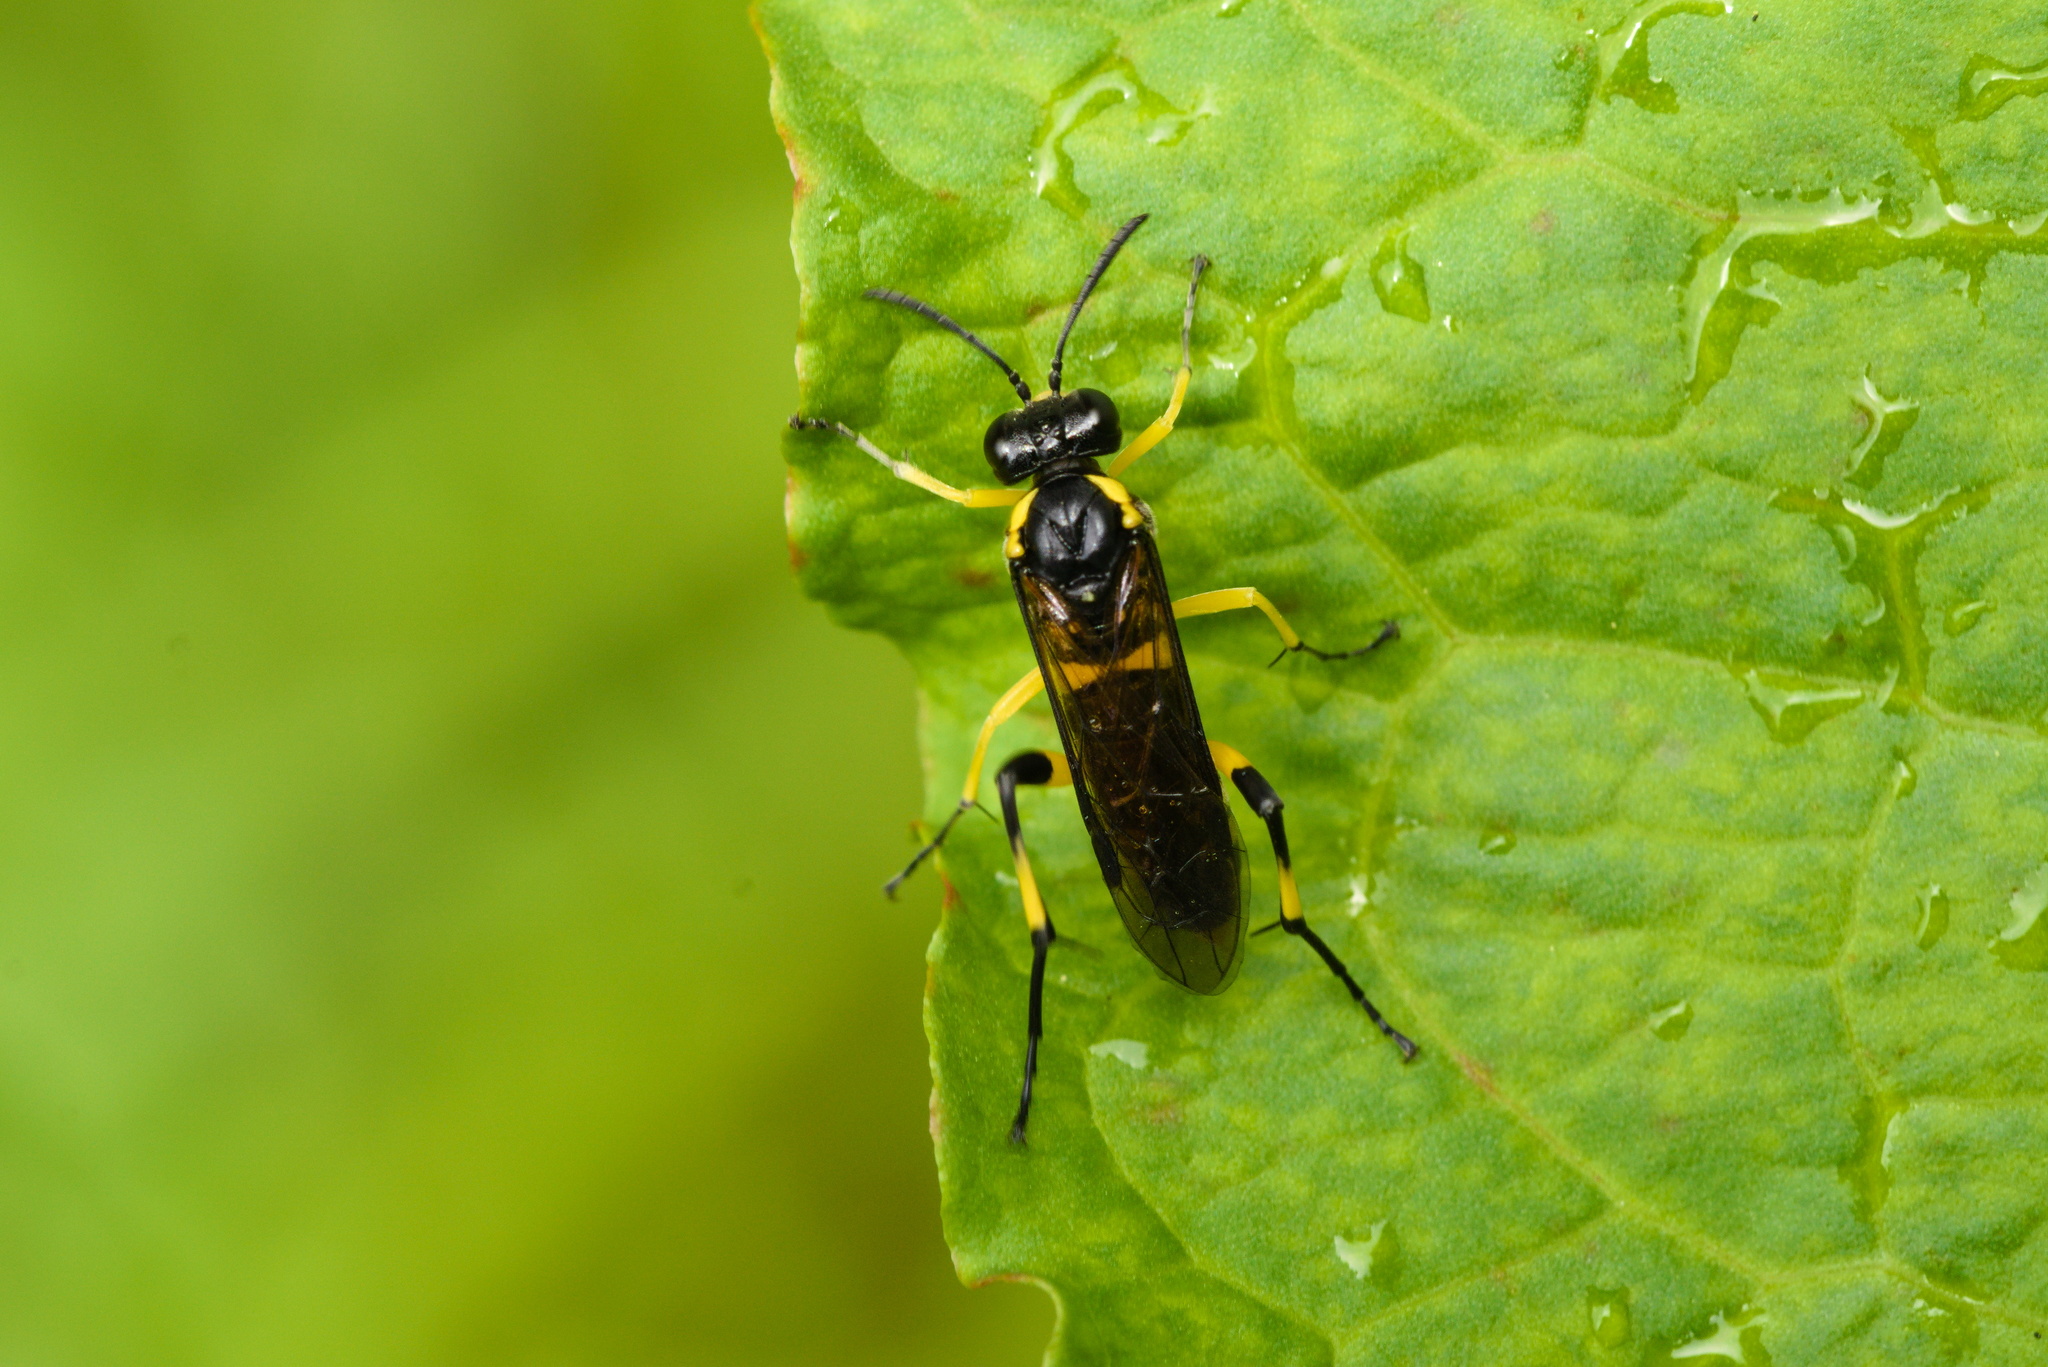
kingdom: Animalia
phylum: Arthropoda
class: Insecta
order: Hymenoptera
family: Tenthredinidae
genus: Macrophya
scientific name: Macrophya montana
